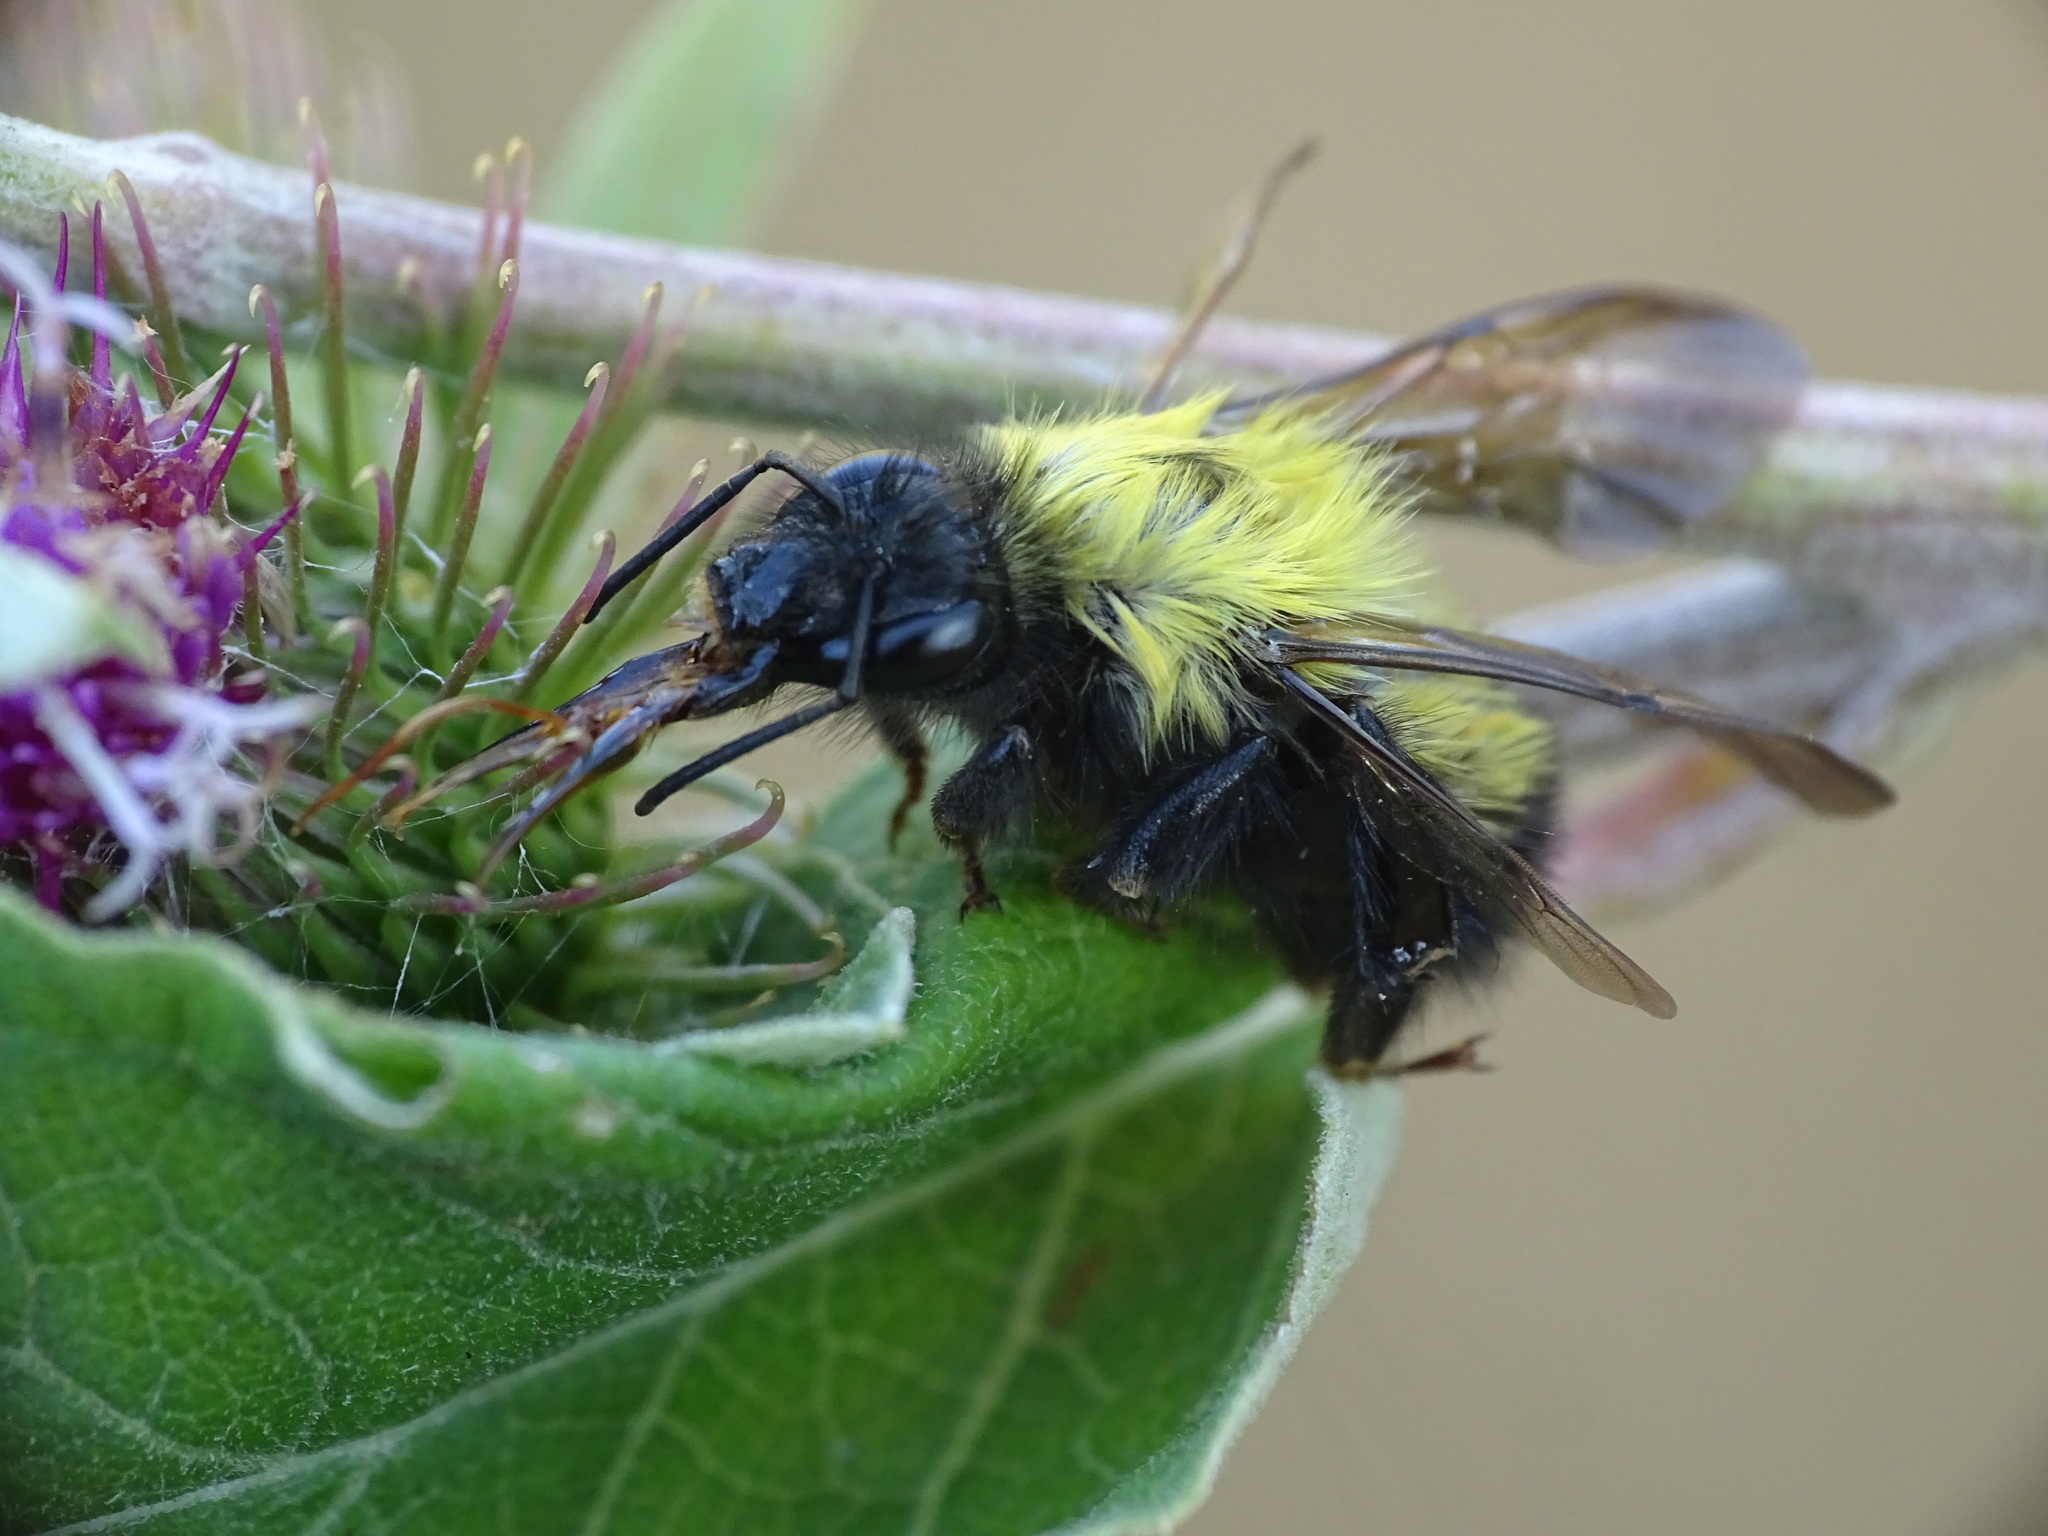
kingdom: Animalia
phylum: Arthropoda
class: Insecta
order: Hymenoptera
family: Apidae
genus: Bombus
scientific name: Bombus perplexus
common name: Confusing bumble bee
